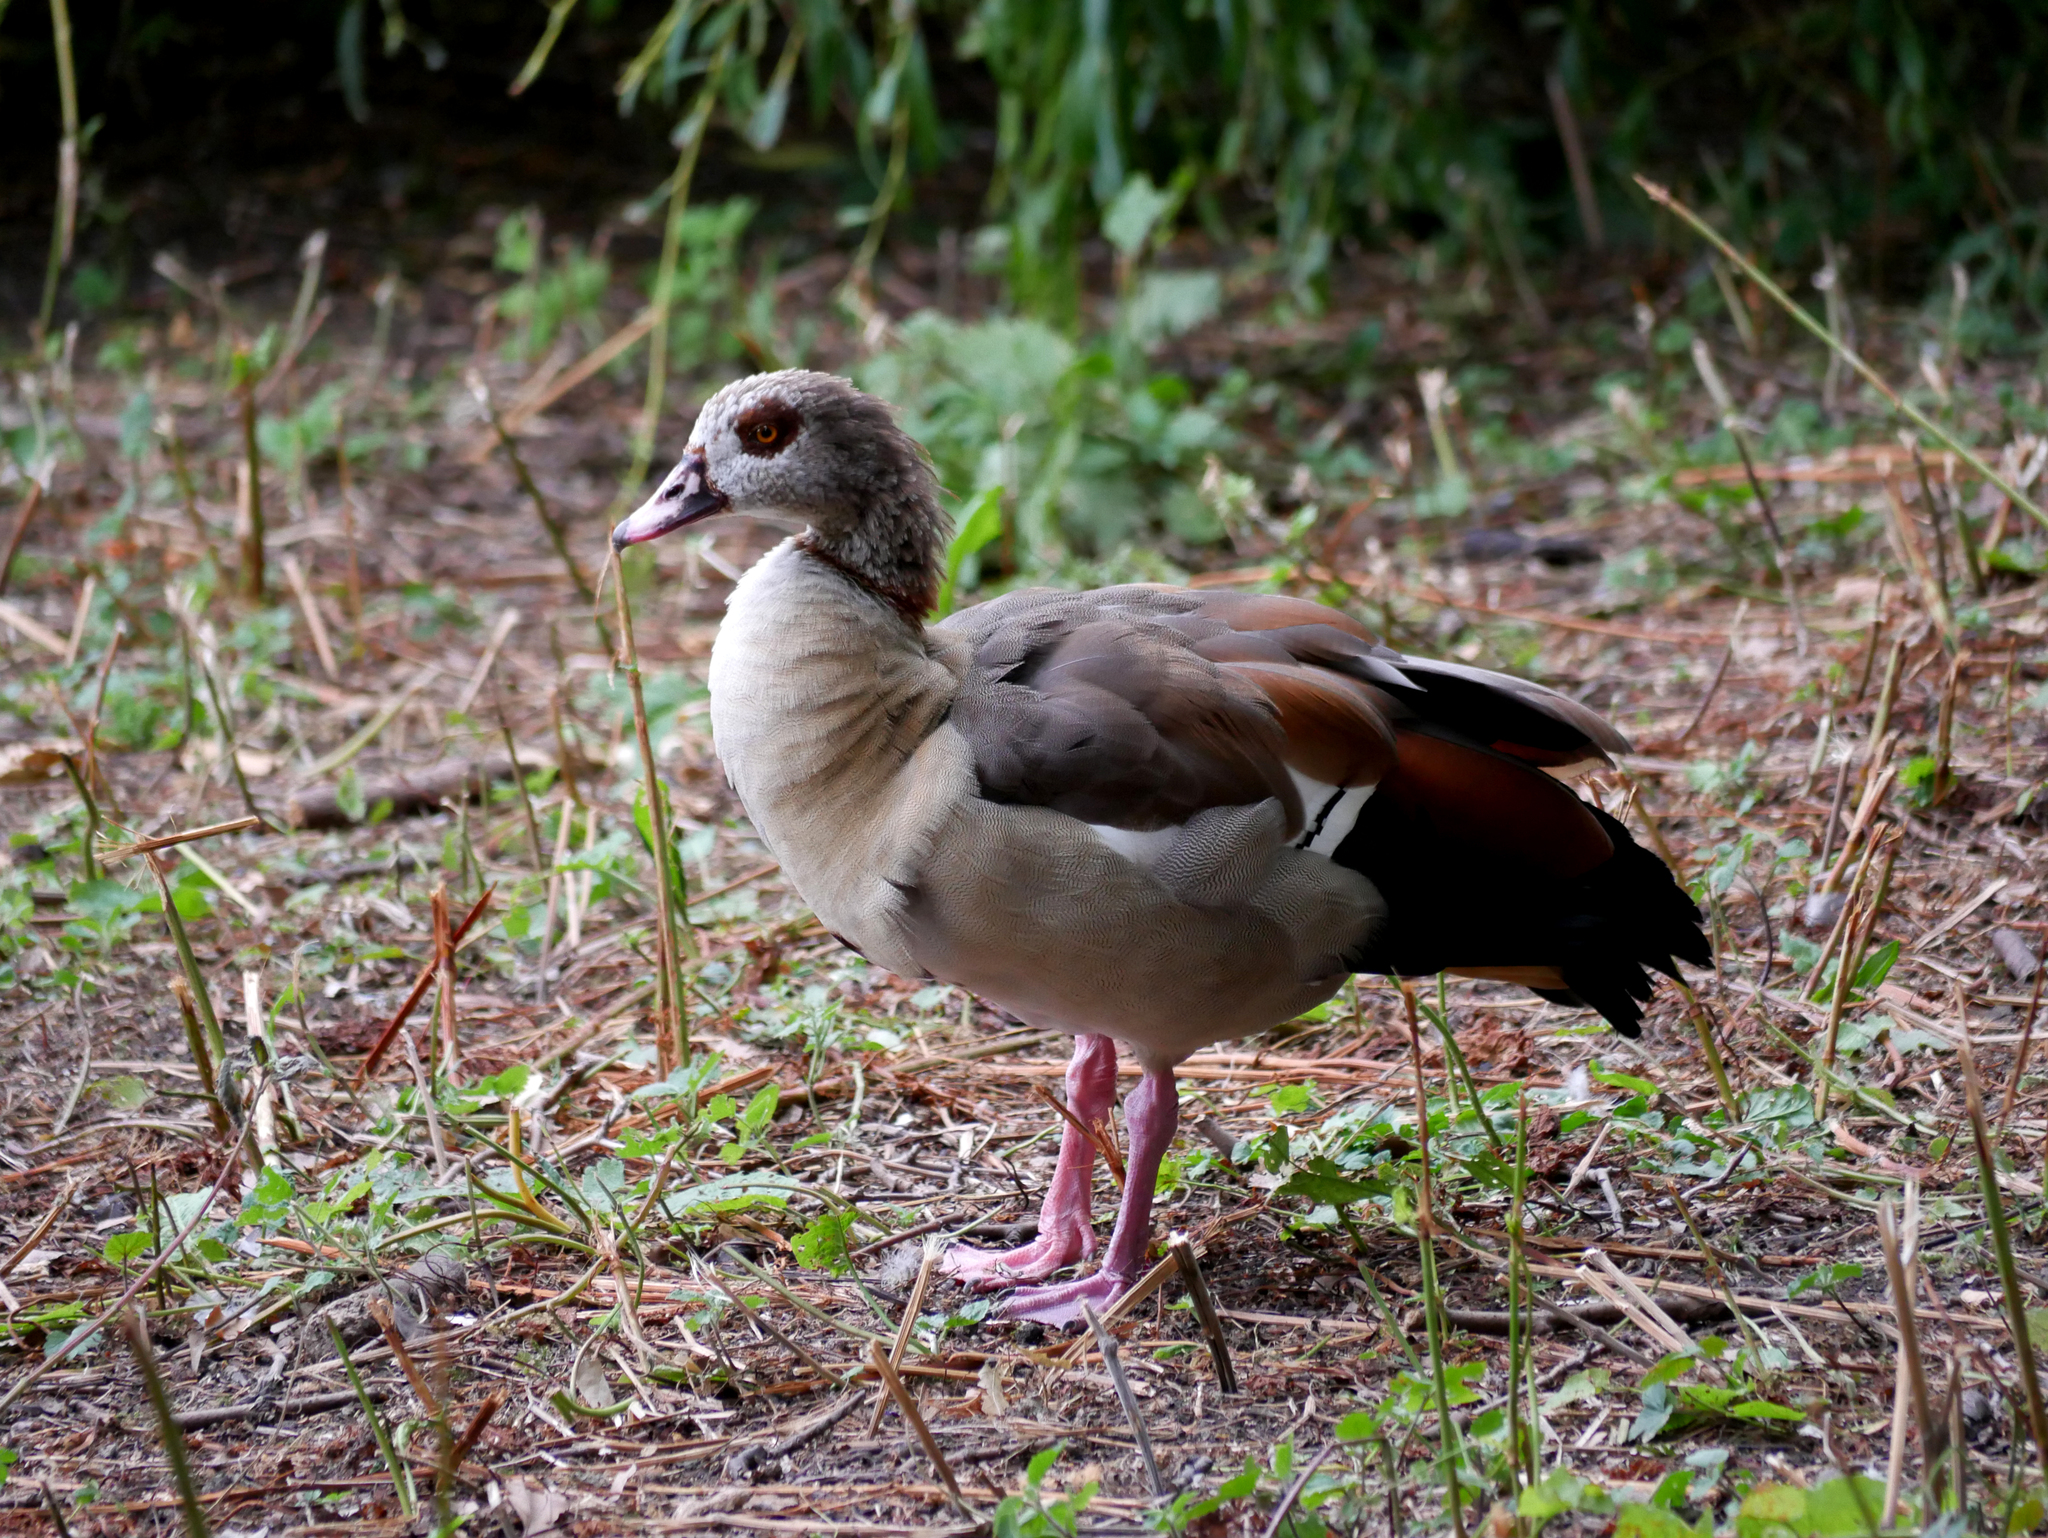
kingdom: Animalia
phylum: Chordata
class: Aves
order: Anseriformes
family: Anatidae
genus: Alopochen
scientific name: Alopochen aegyptiaca
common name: Egyptian goose
